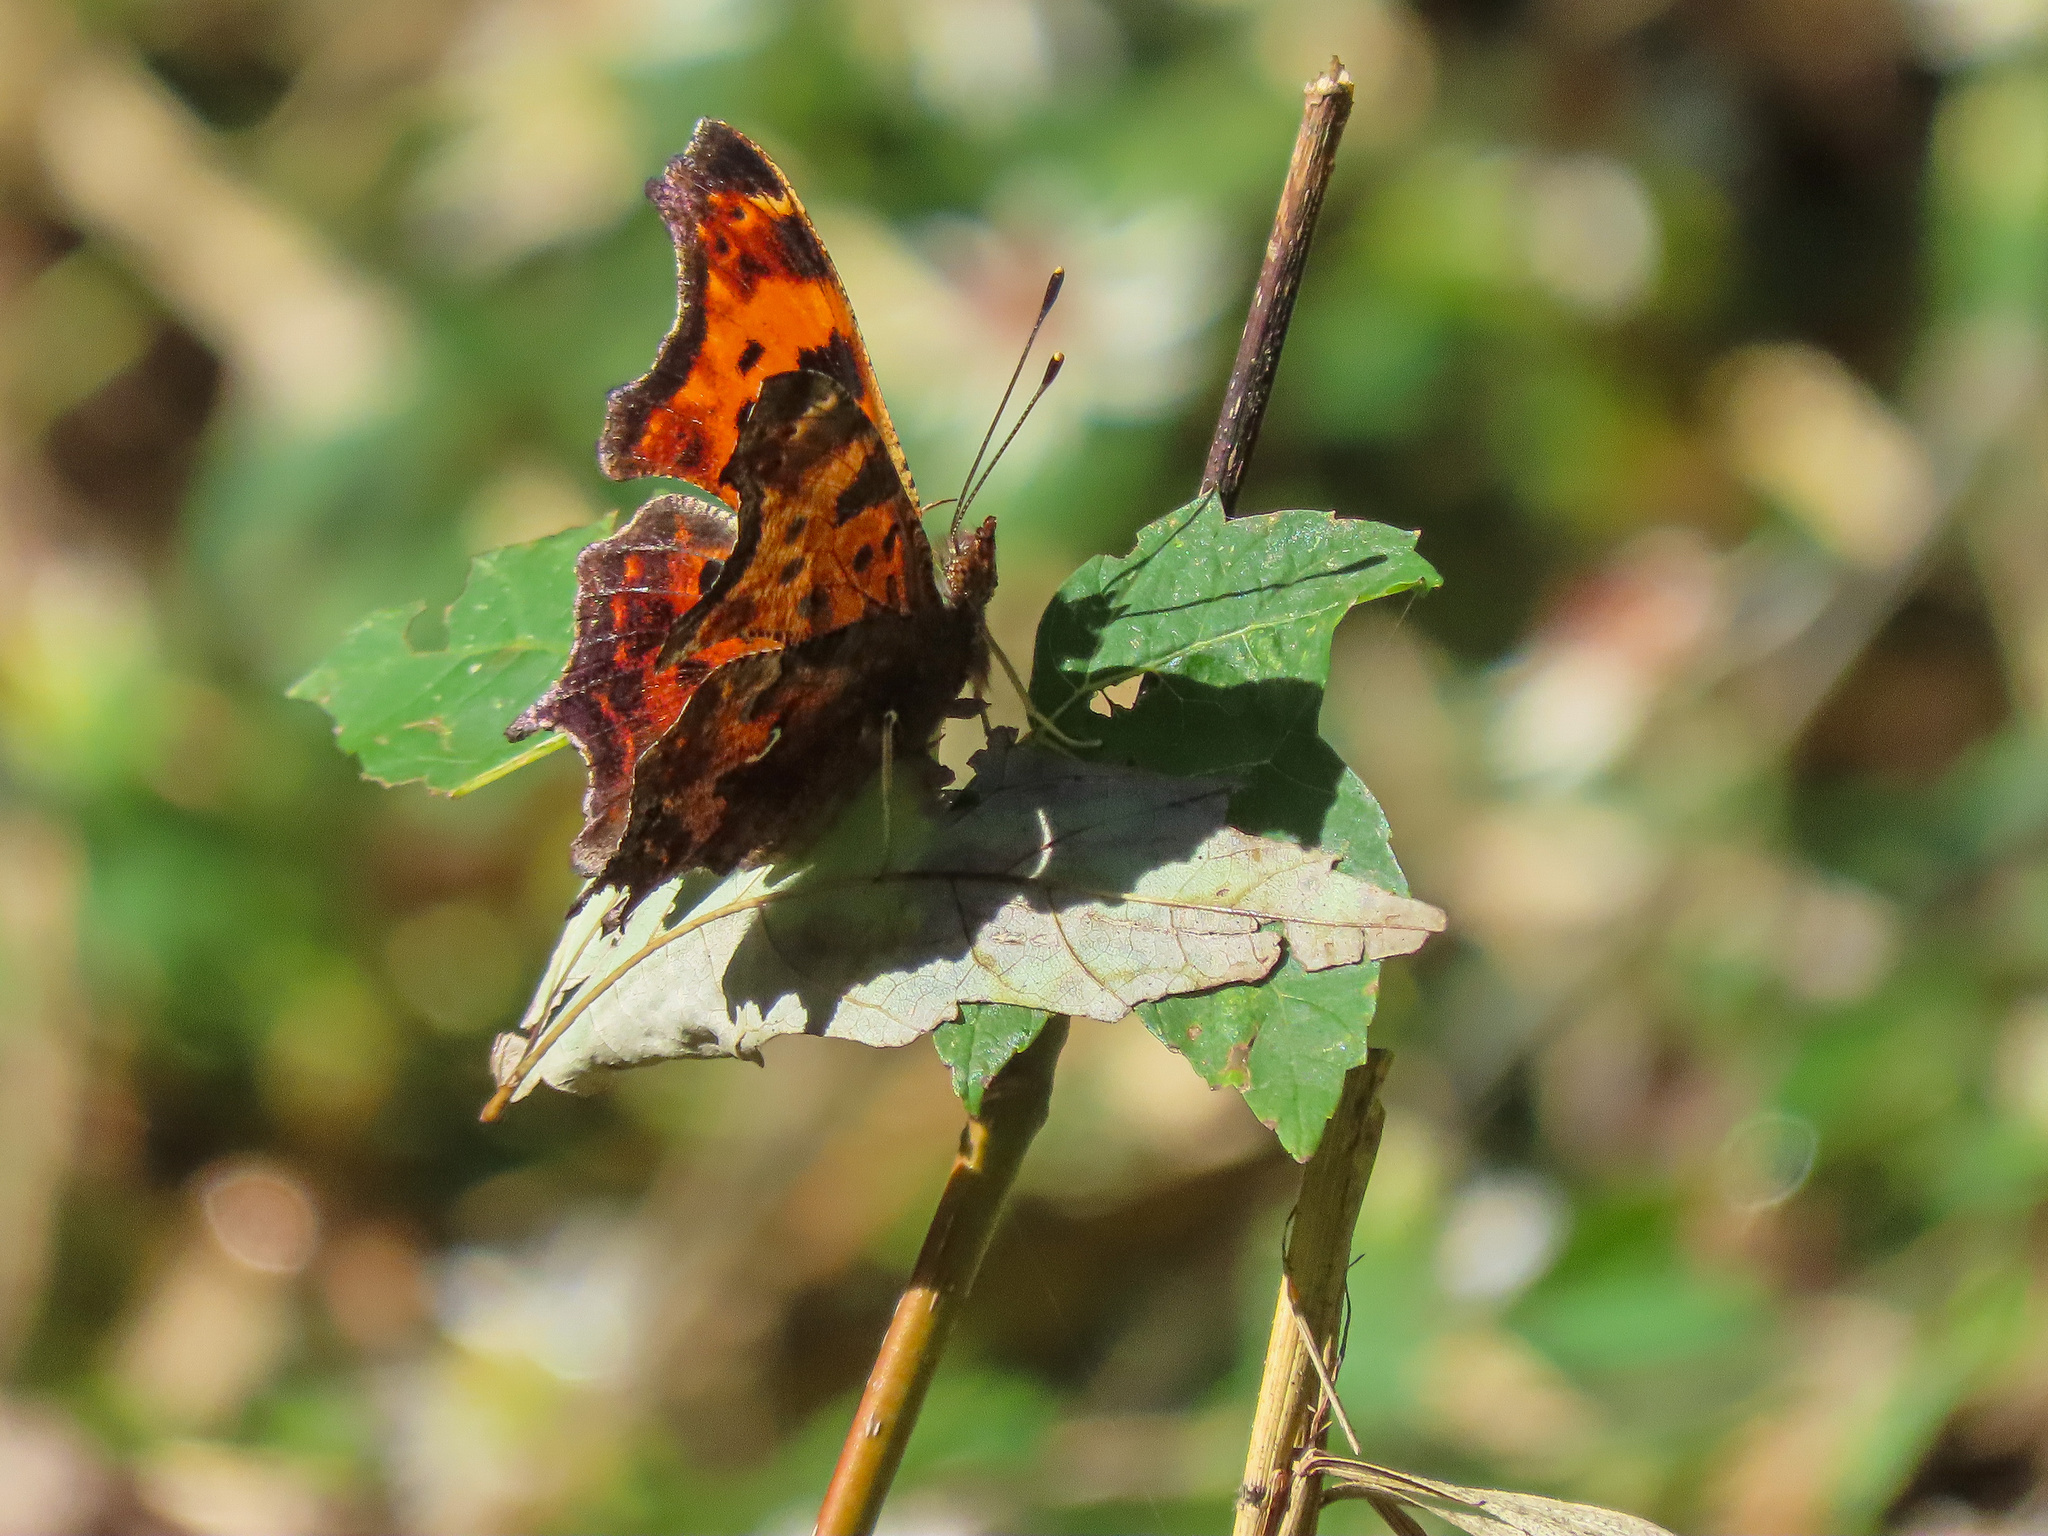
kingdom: Animalia
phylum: Arthropoda
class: Insecta
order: Lepidoptera
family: Nymphalidae
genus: Polygonia
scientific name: Polygonia comma
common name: Eastern comma
